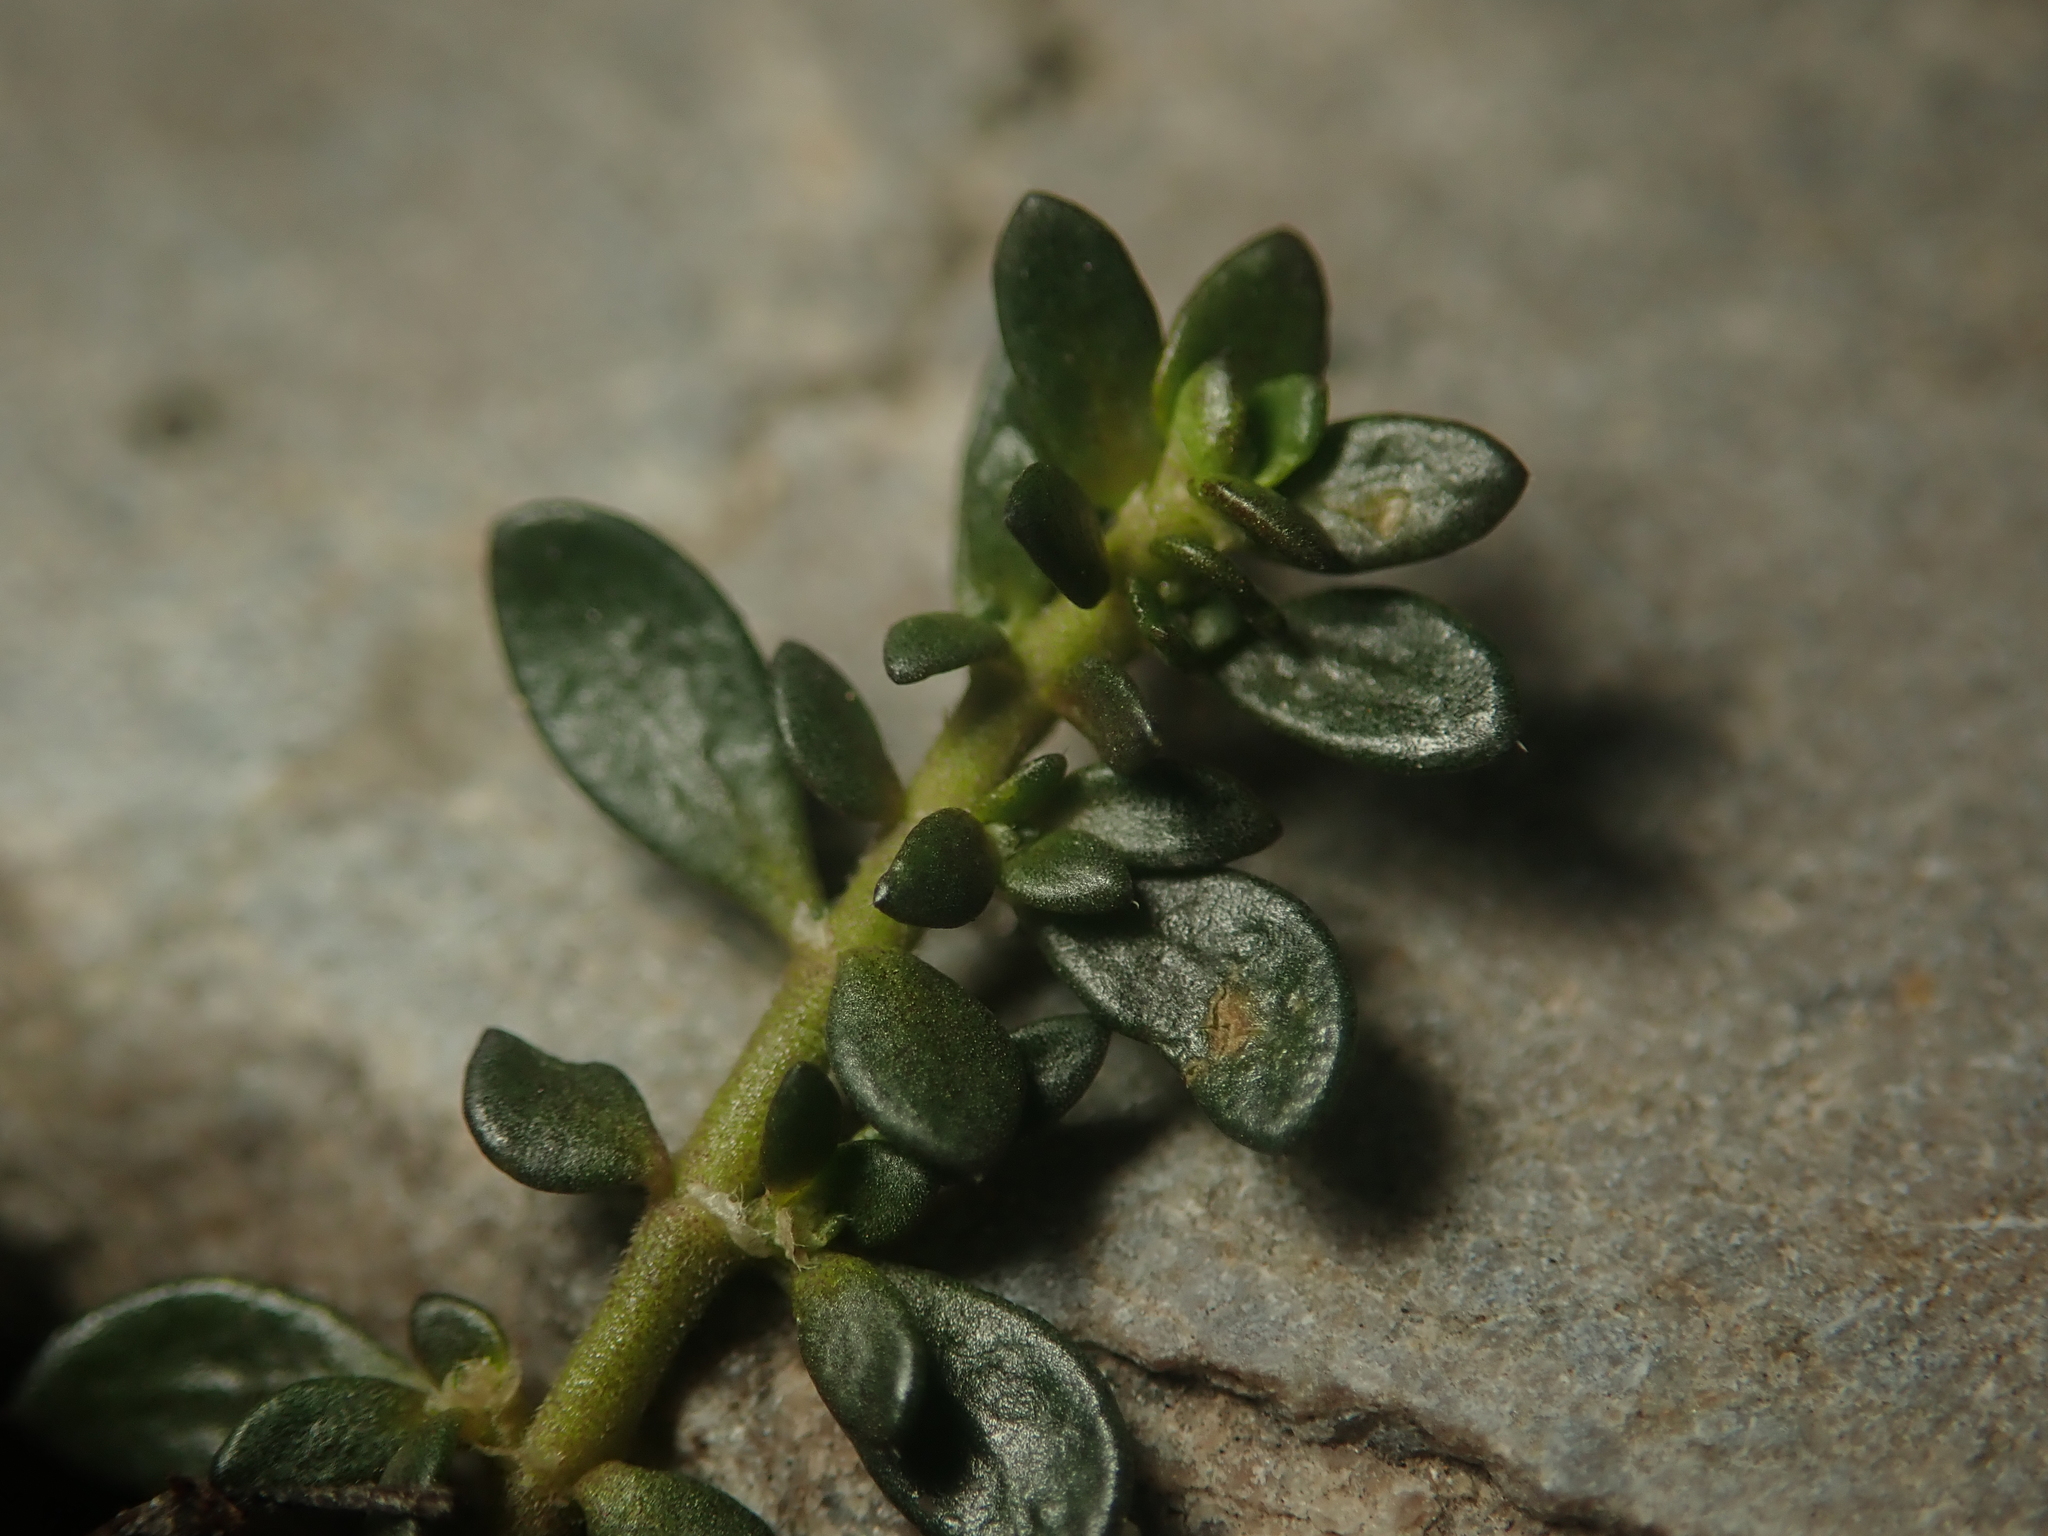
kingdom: Plantae
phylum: Tracheophyta
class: Magnoliopsida
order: Caryophyllales
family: Caryophyllaceae
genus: Herniaria
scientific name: Herniaria glabra
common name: Smooth rupturewort
